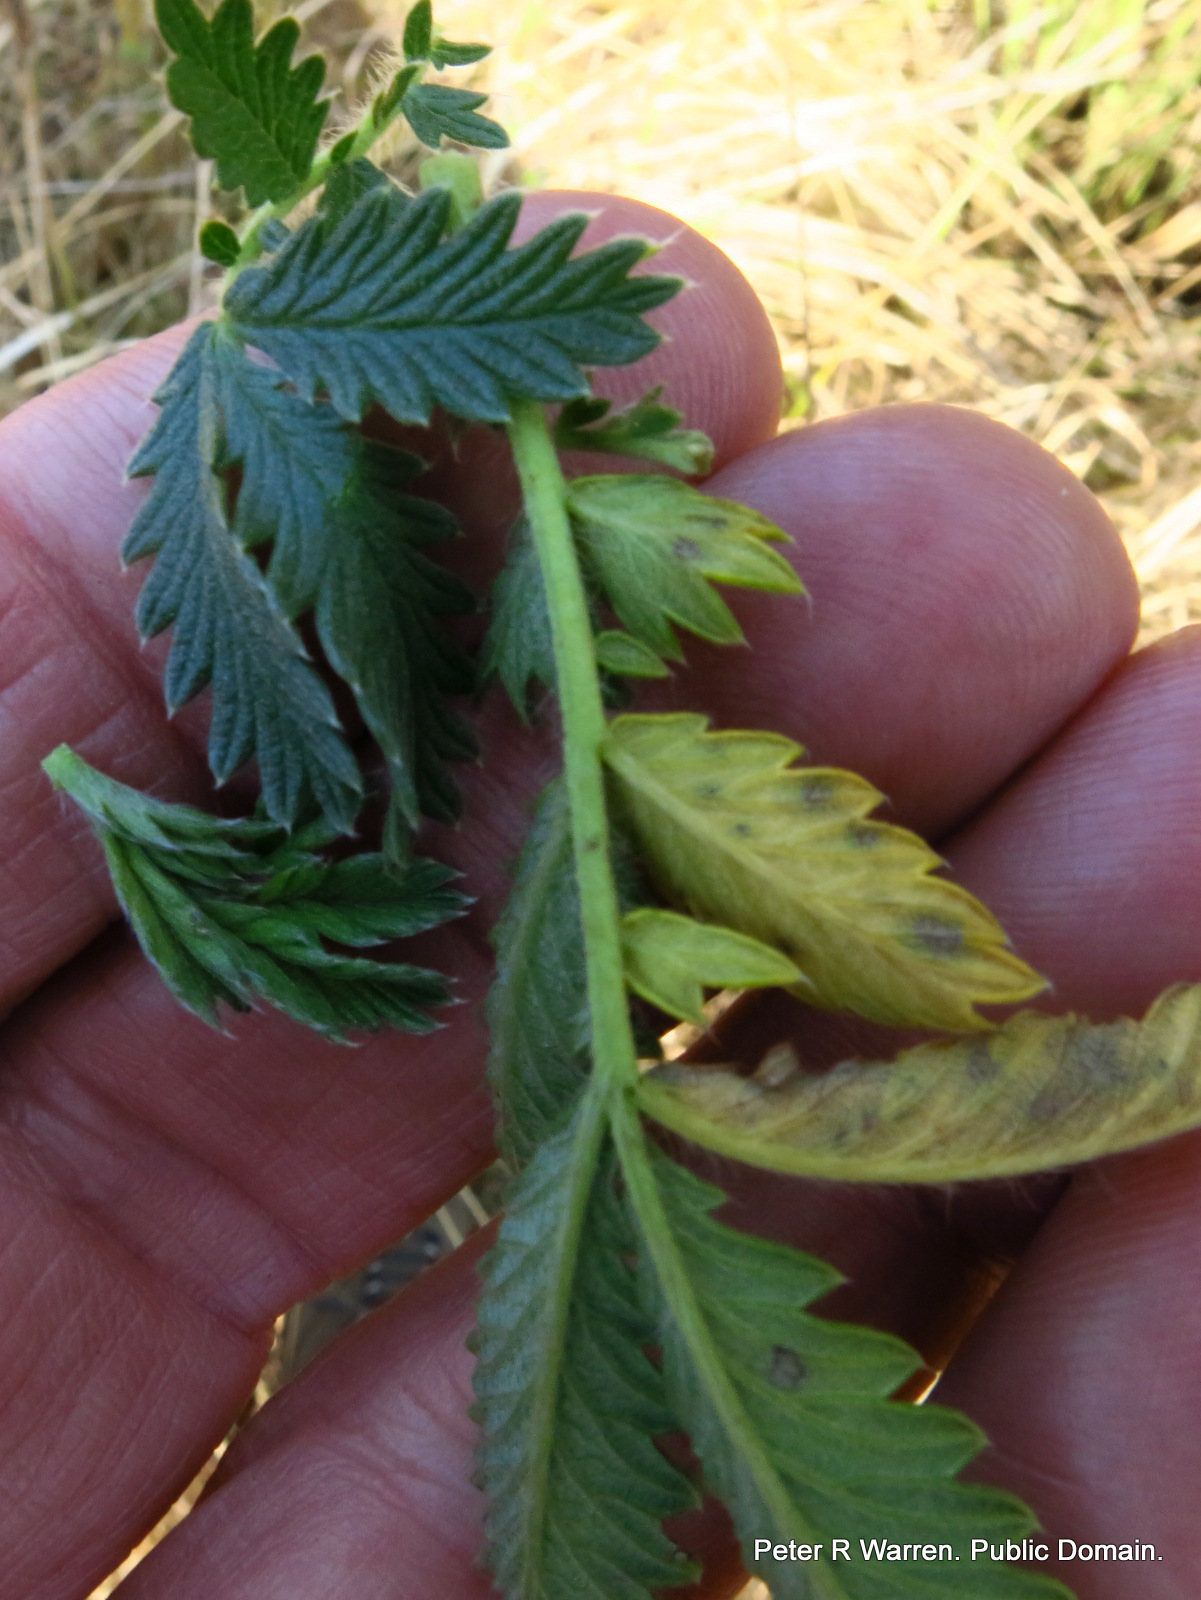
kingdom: Plantae
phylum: Tracheophyta
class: Magnoliopsida
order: Rosales
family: Rosaceae
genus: Leucosidea
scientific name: Leucosidea sericea
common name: Oldwood
